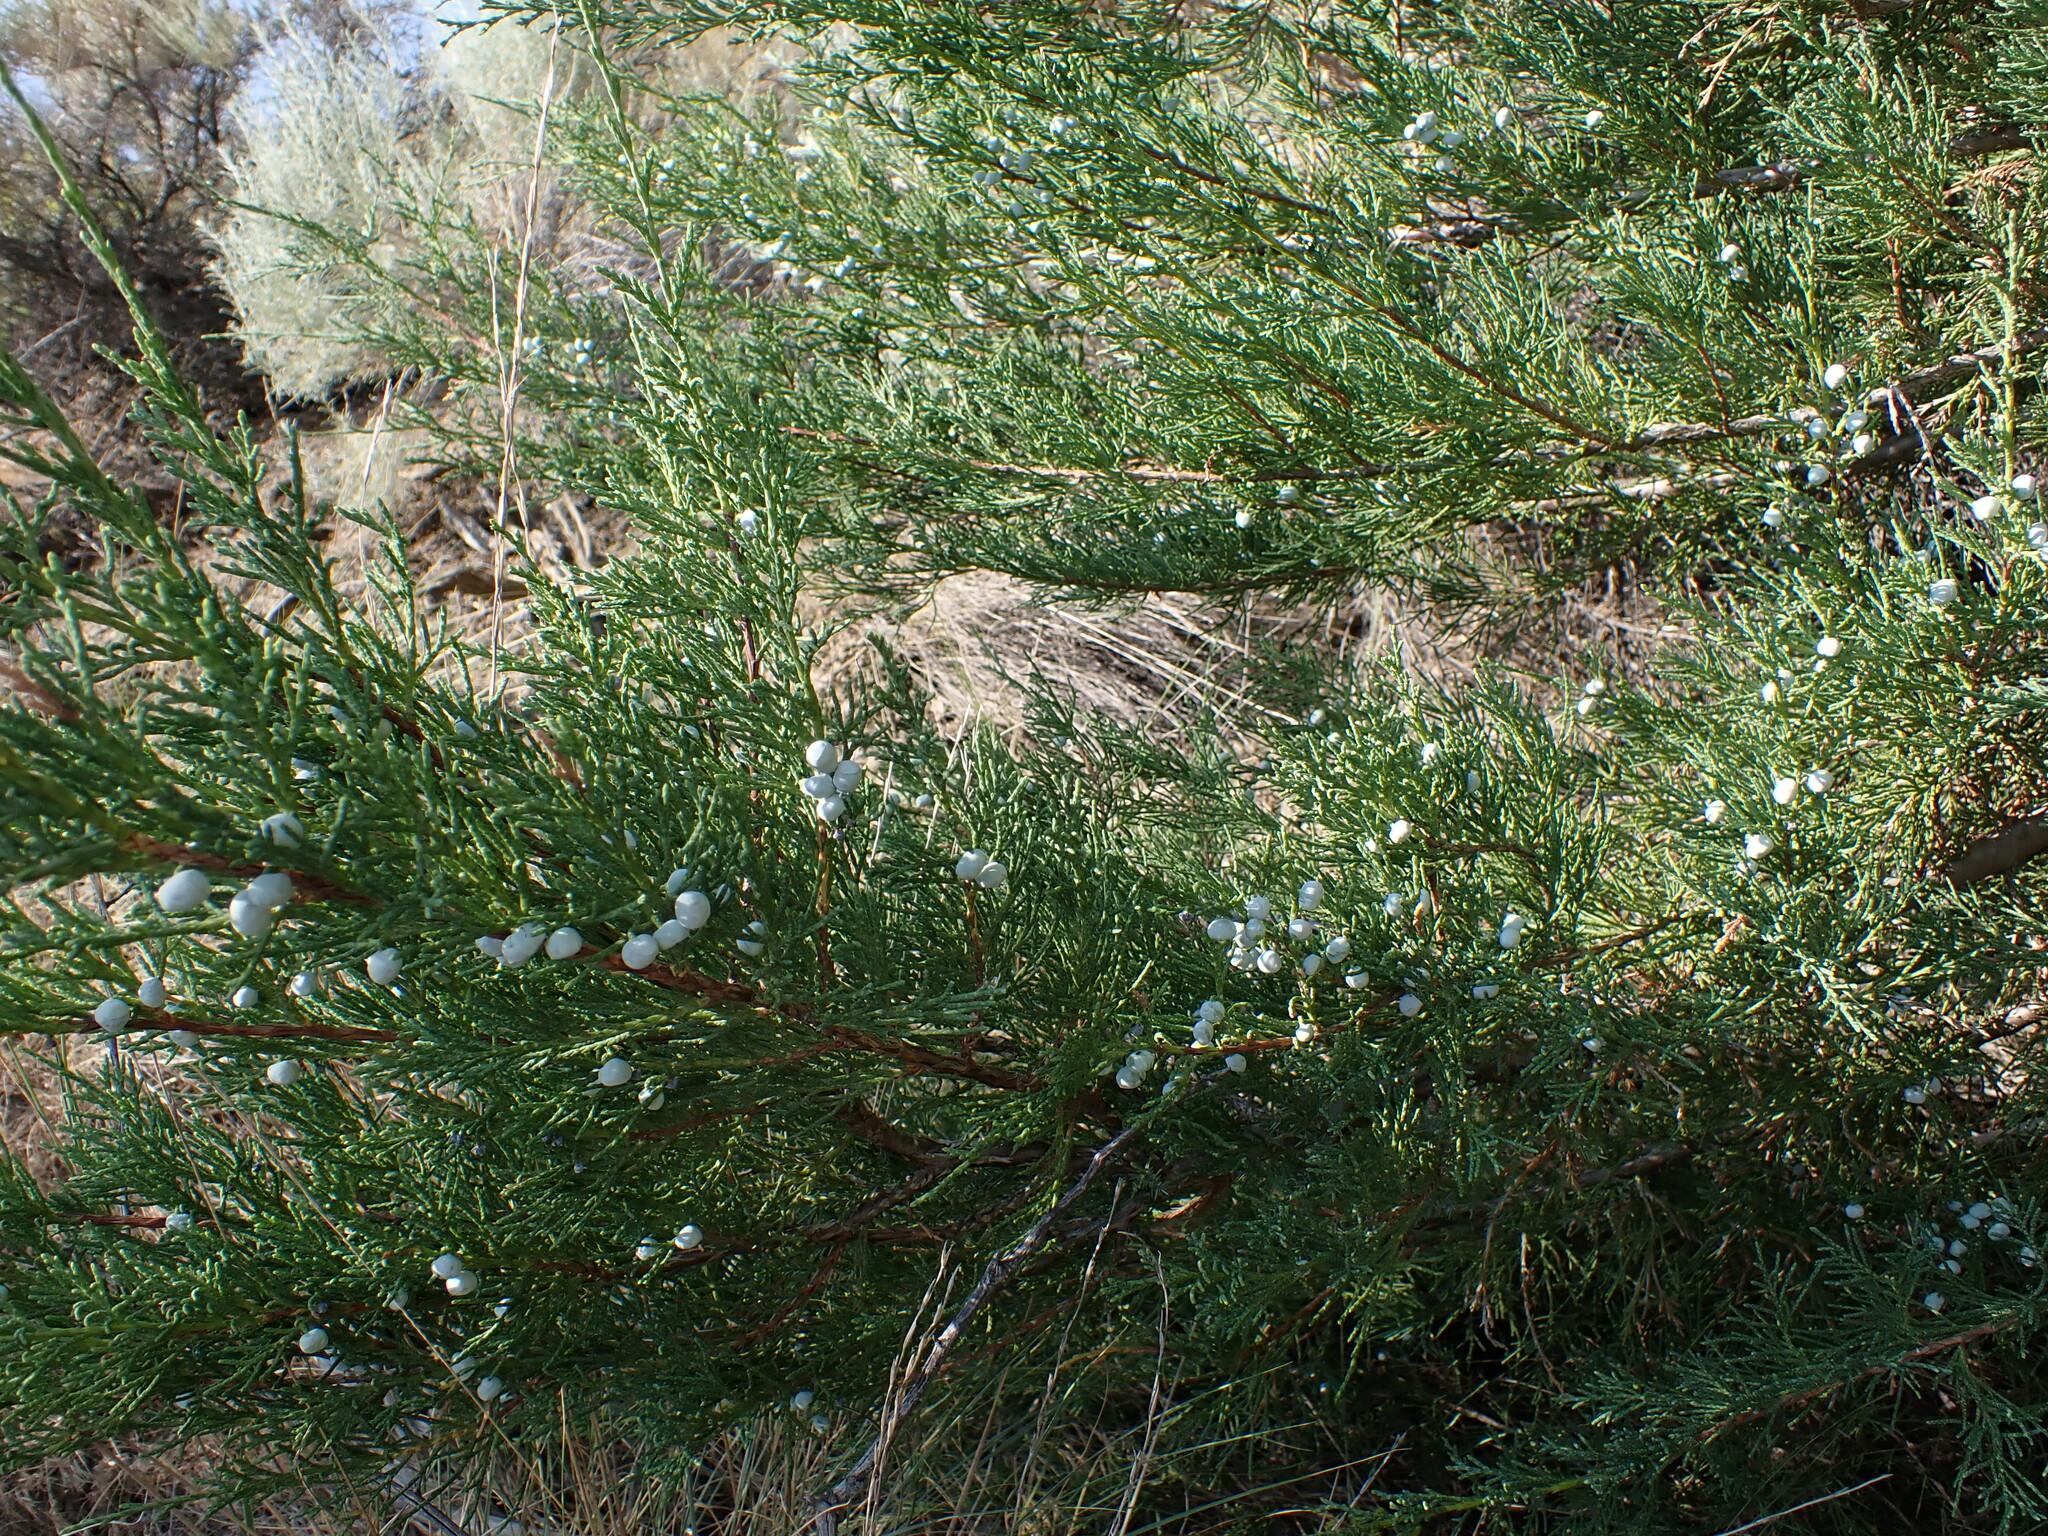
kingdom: Plantae
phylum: Tracheophyta
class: Pinopsida
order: Pinales
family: Cupressaceae
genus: Juniperus
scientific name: Juniperus scopulorum
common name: Rocky mountain juniper
